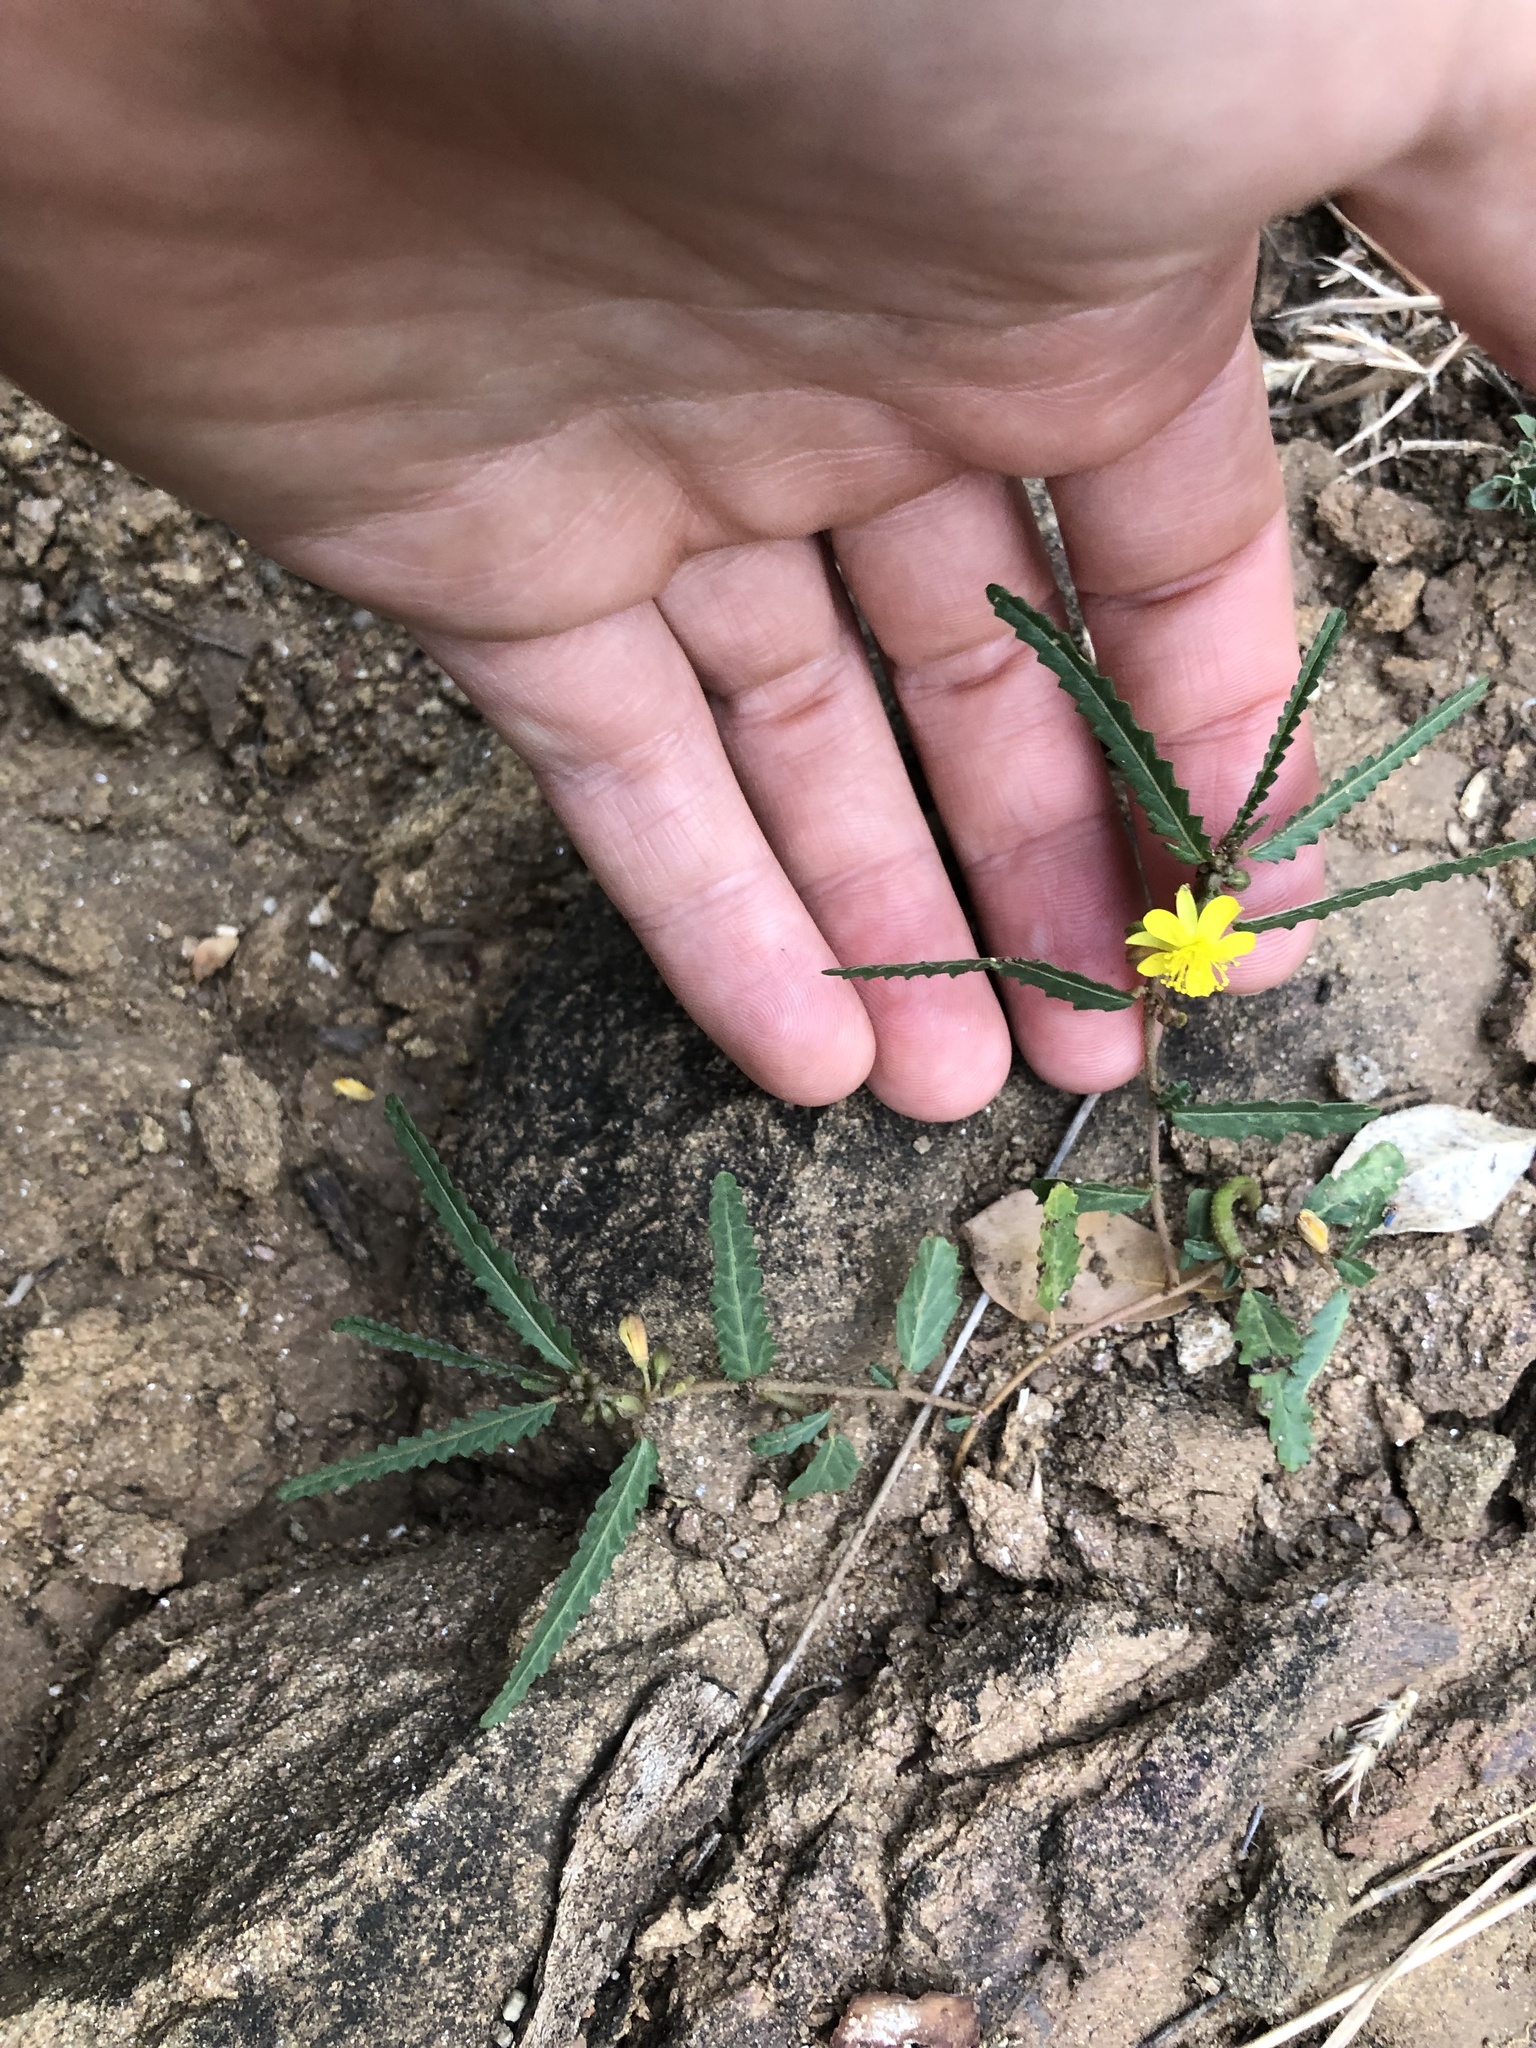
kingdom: Plantae
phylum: Tracheophyta
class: Magnoliopsida
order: Malvales
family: Malvaceae
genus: Corchorus
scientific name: Corchorus asplenifolius
